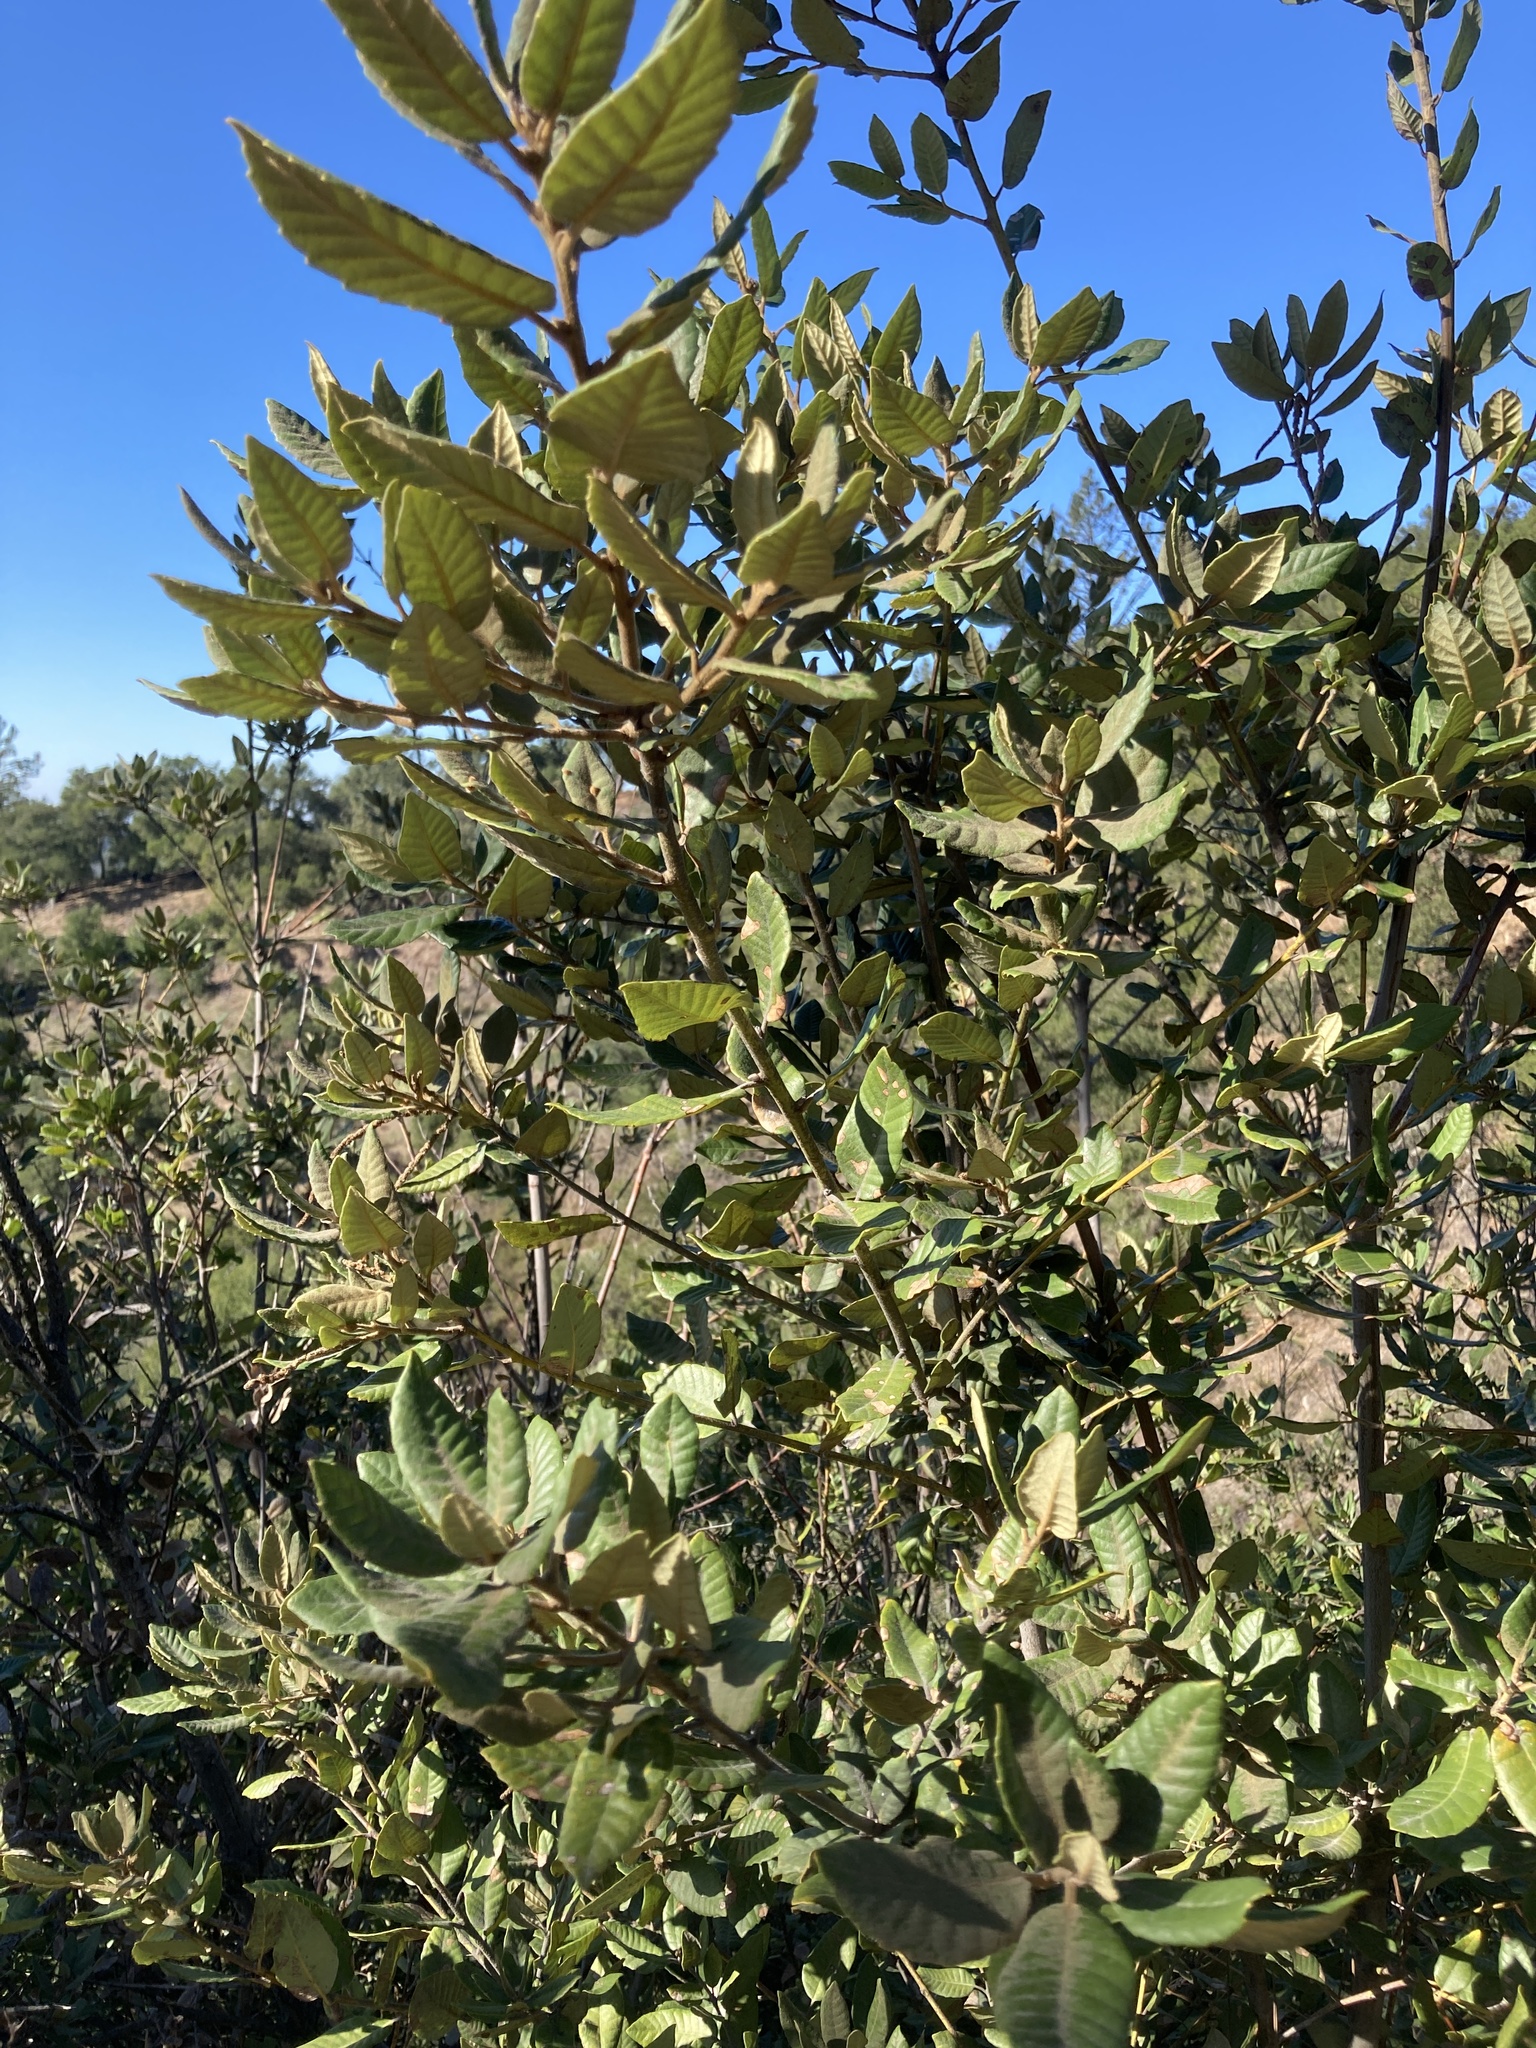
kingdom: Plantae
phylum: Tracheophyta
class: Magnoliopsida
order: Fagales
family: Fagaceae
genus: Notholithocarpus
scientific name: Notholithocarpus densiflorus
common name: Tan bark oak
